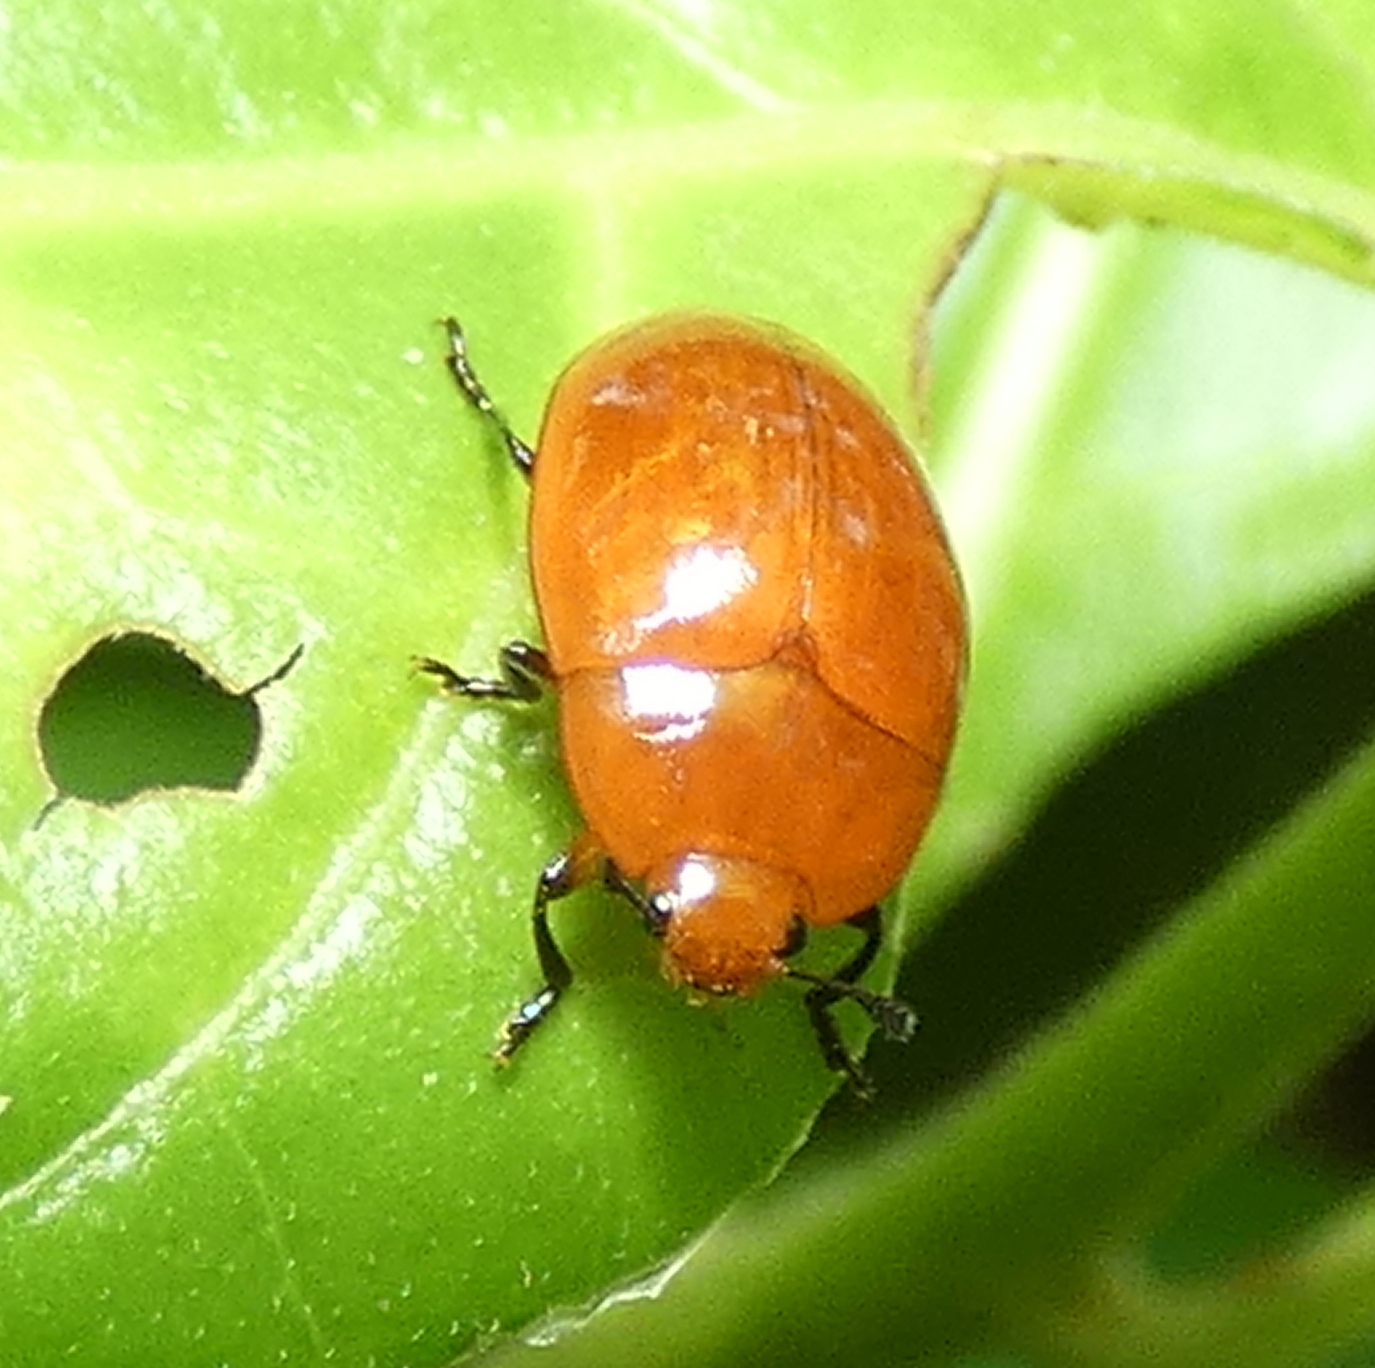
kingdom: Animalia
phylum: Arthropoda
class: Insecta
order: Coleoptera
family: Erotylidae
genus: Iphiclus
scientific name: Iphiclus
